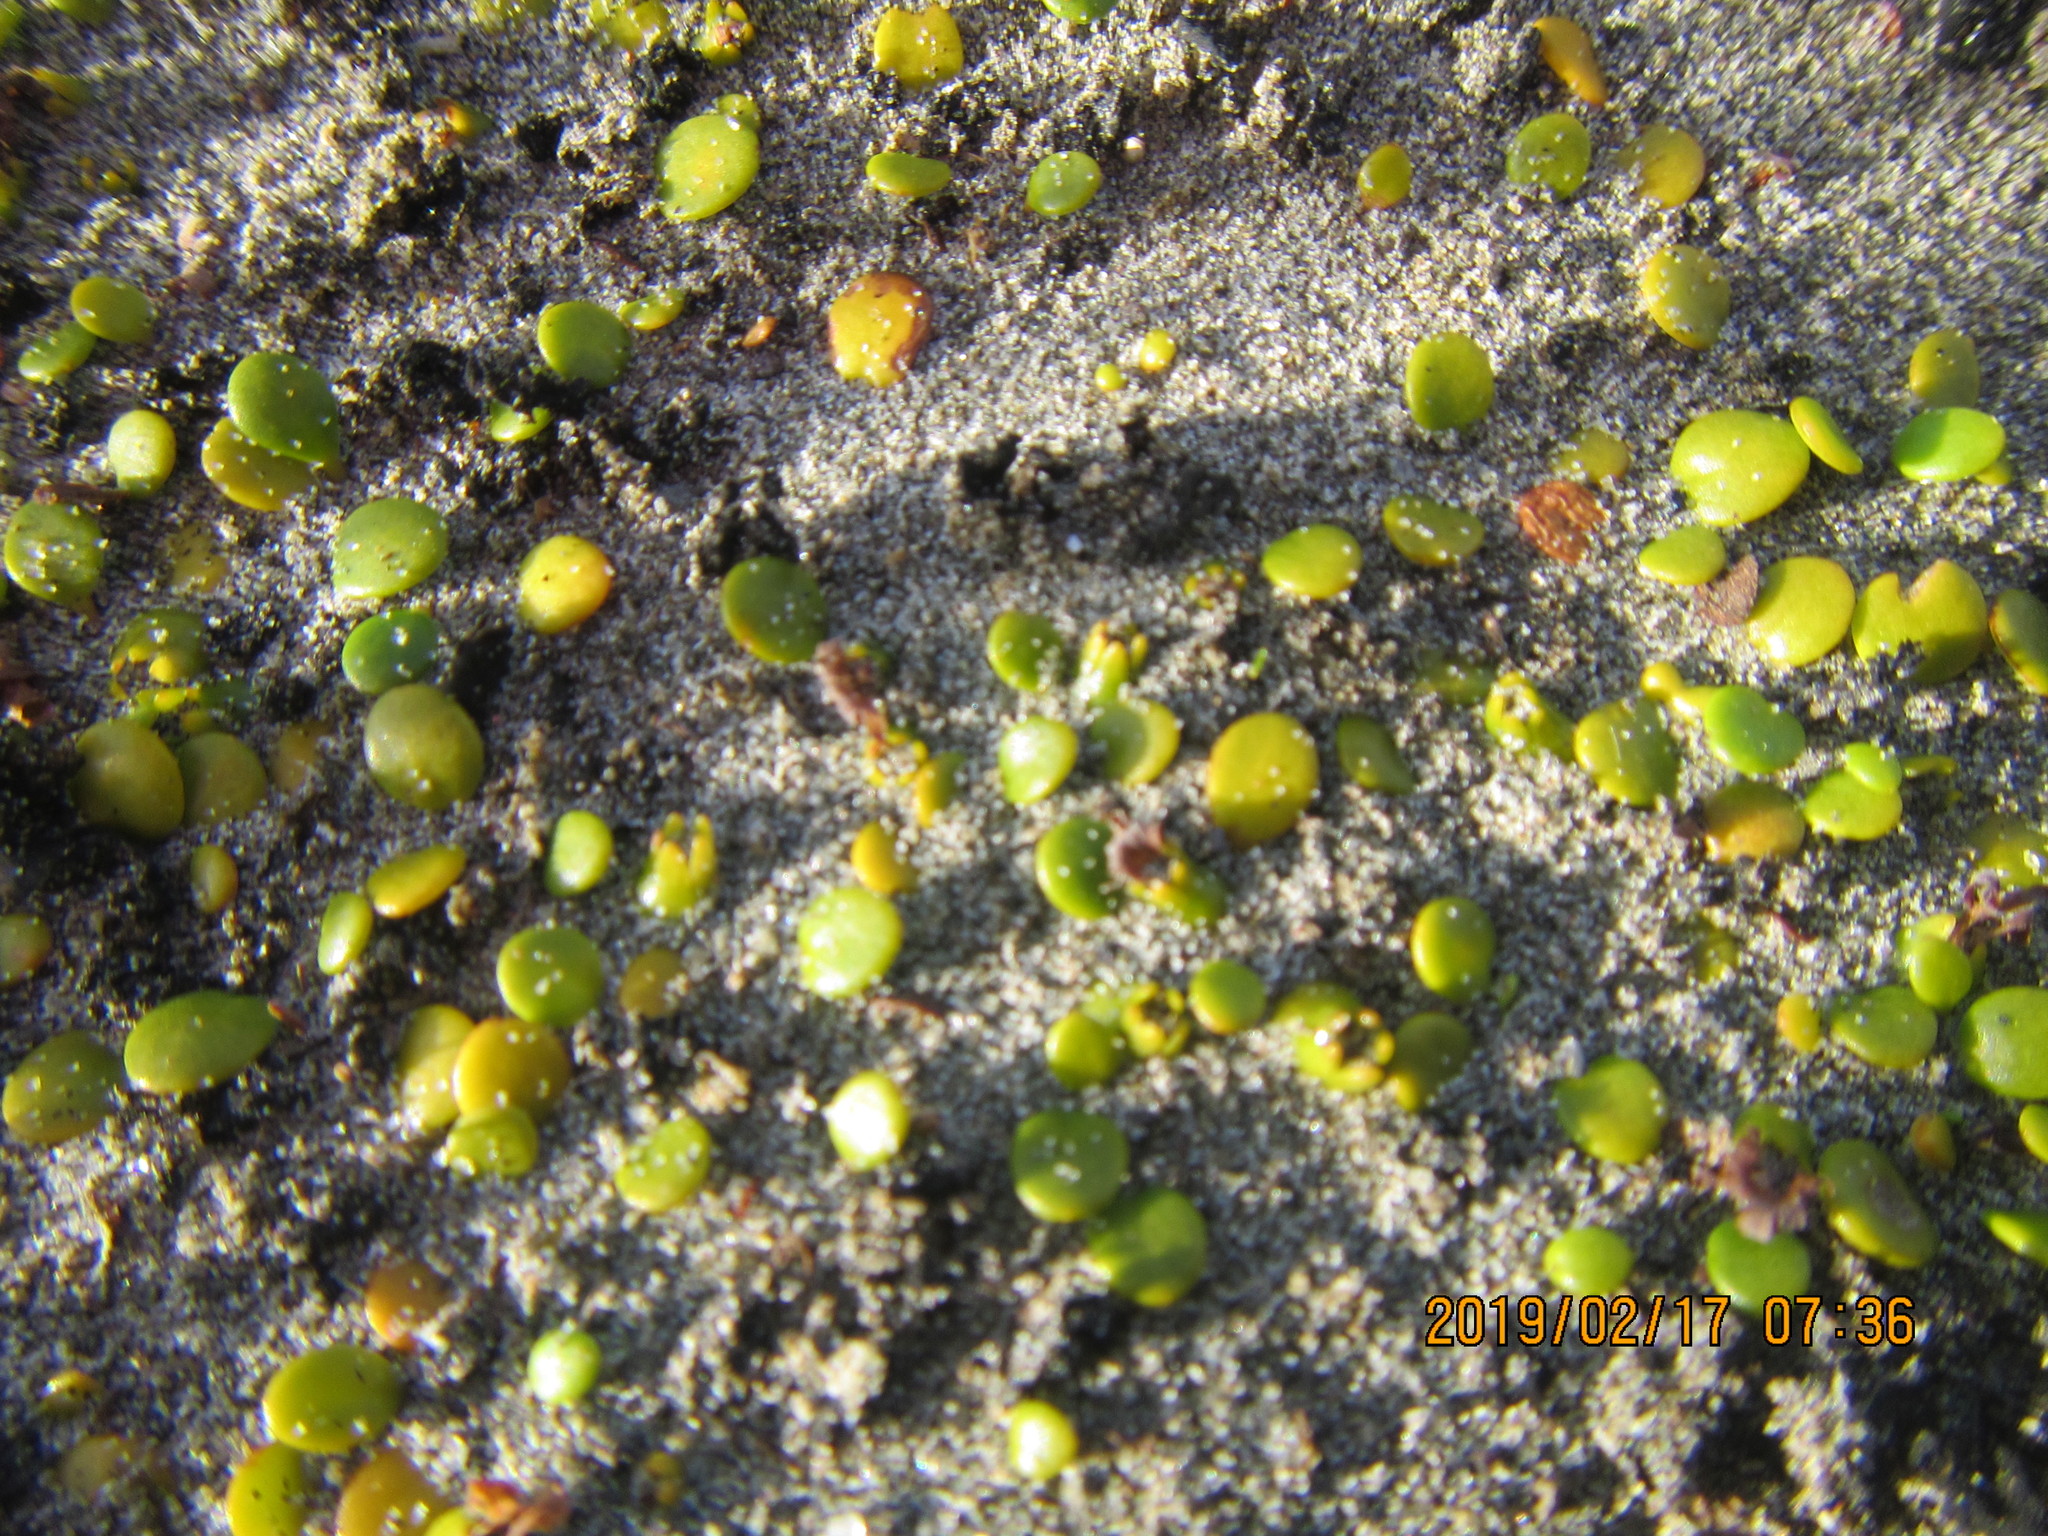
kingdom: Plantae
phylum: Tracheophyta
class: Magnoliopsida
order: Asterales
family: Goodeniaceae
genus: Goodenia
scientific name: Goodenia heenanii
